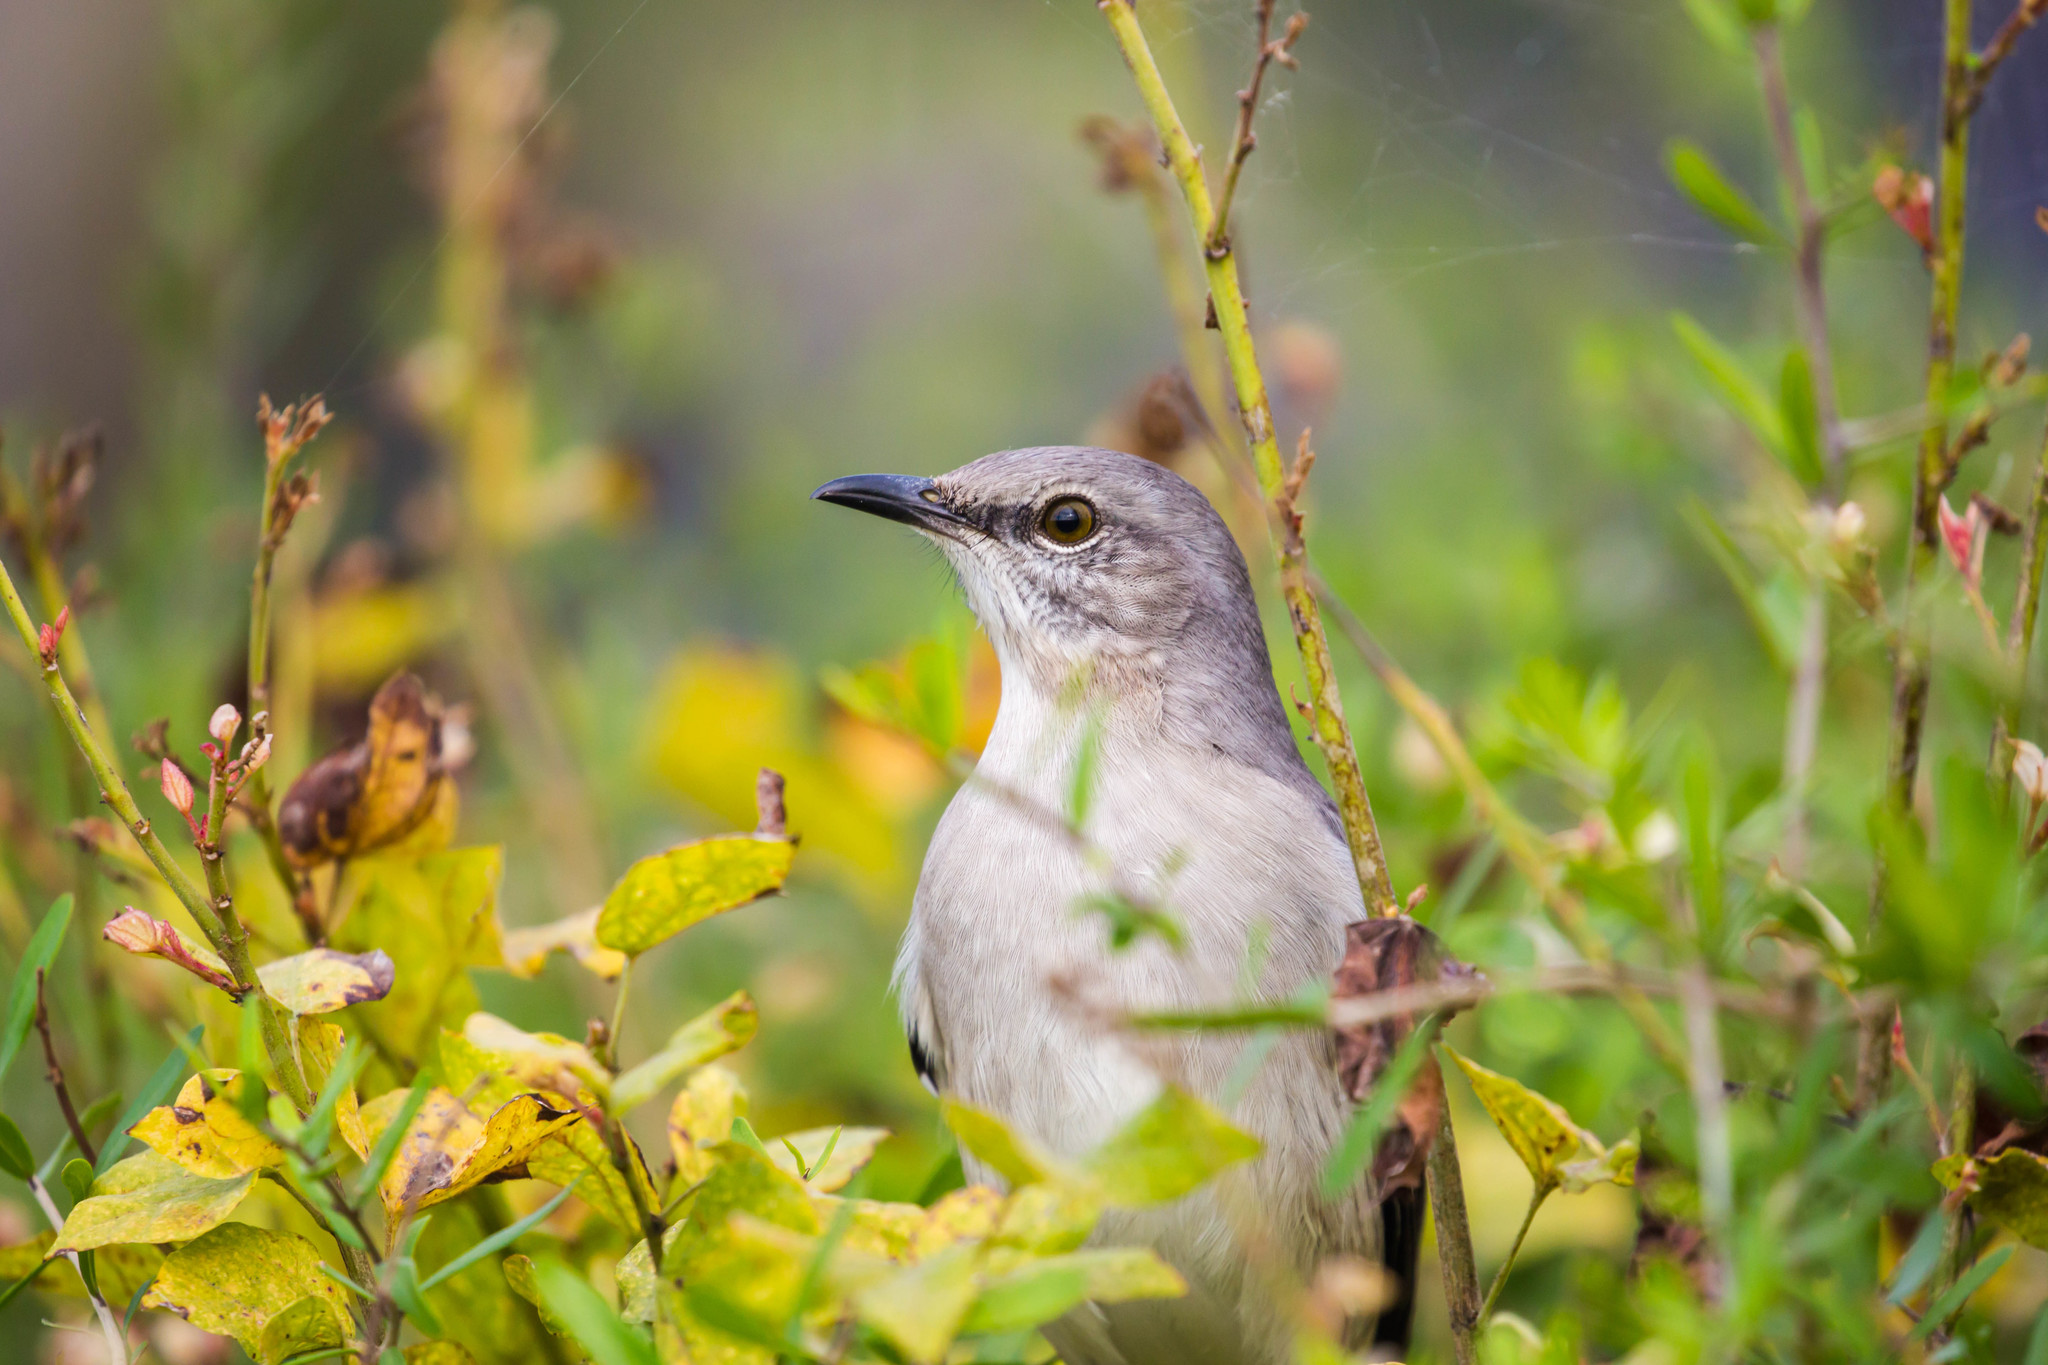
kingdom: Animalia
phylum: Chordata
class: Aves
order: Passeriformes
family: Mimidae
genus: Mimus
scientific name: Mimus polyglottos
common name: Northern mockingbird
